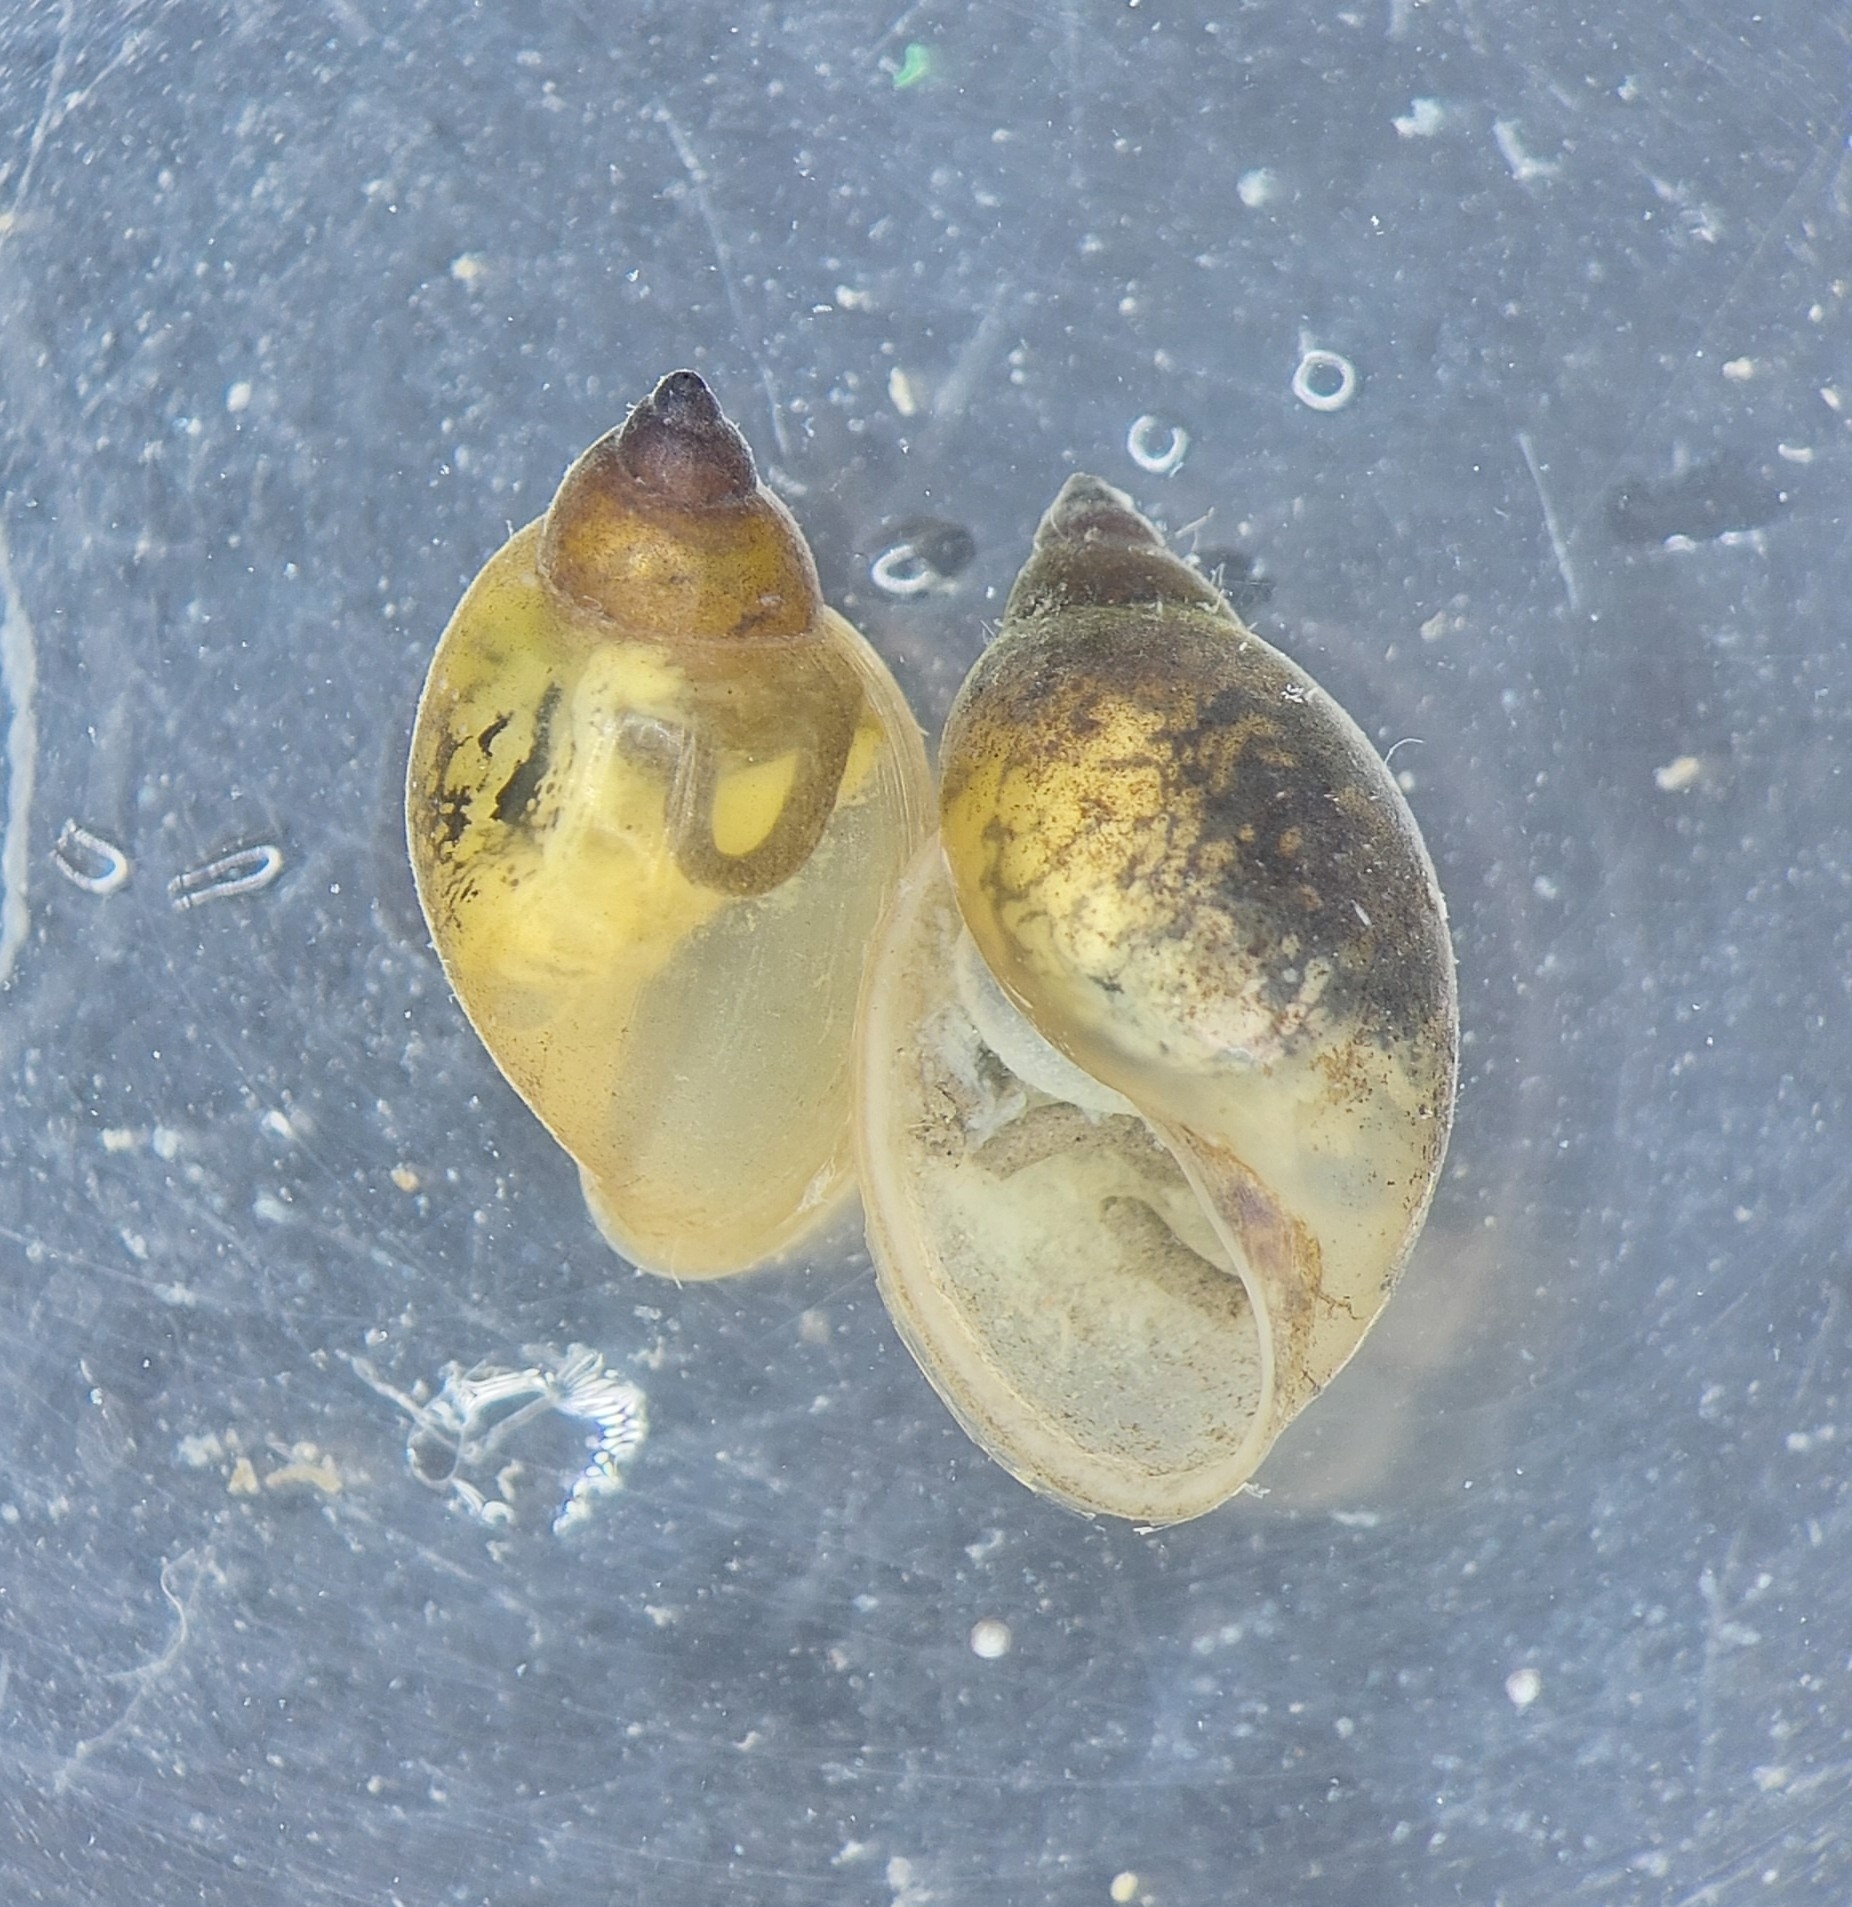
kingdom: Animalia
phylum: Mollusca
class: Gastropoda
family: Physidae
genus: Physella
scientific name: Physella acuta
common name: European physa
